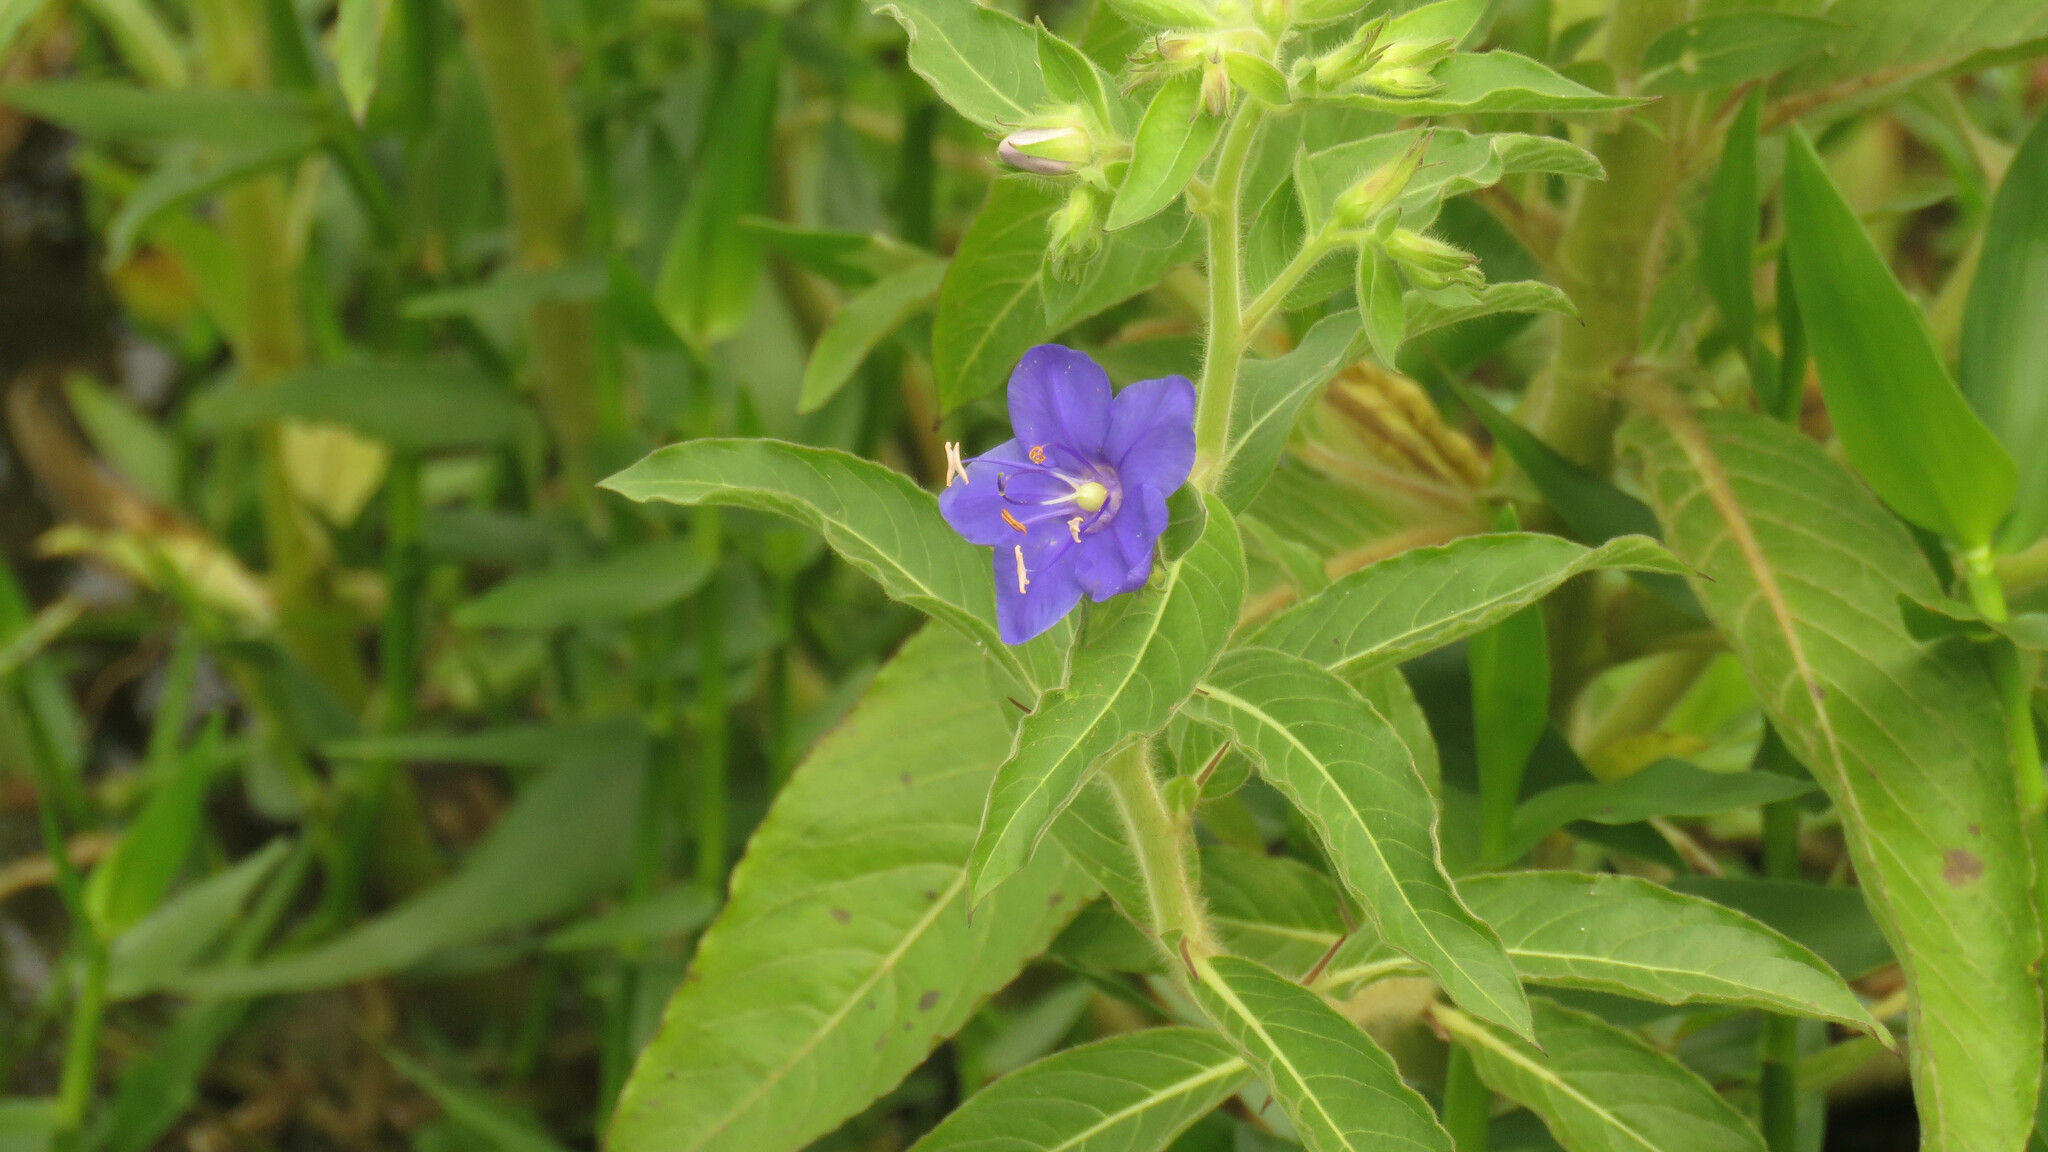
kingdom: Plantae
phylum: Tracheophyta
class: Magnoliopsida
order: Solanales
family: Hydroleaceae
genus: Hydrolea
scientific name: Hydrolea spinosa
